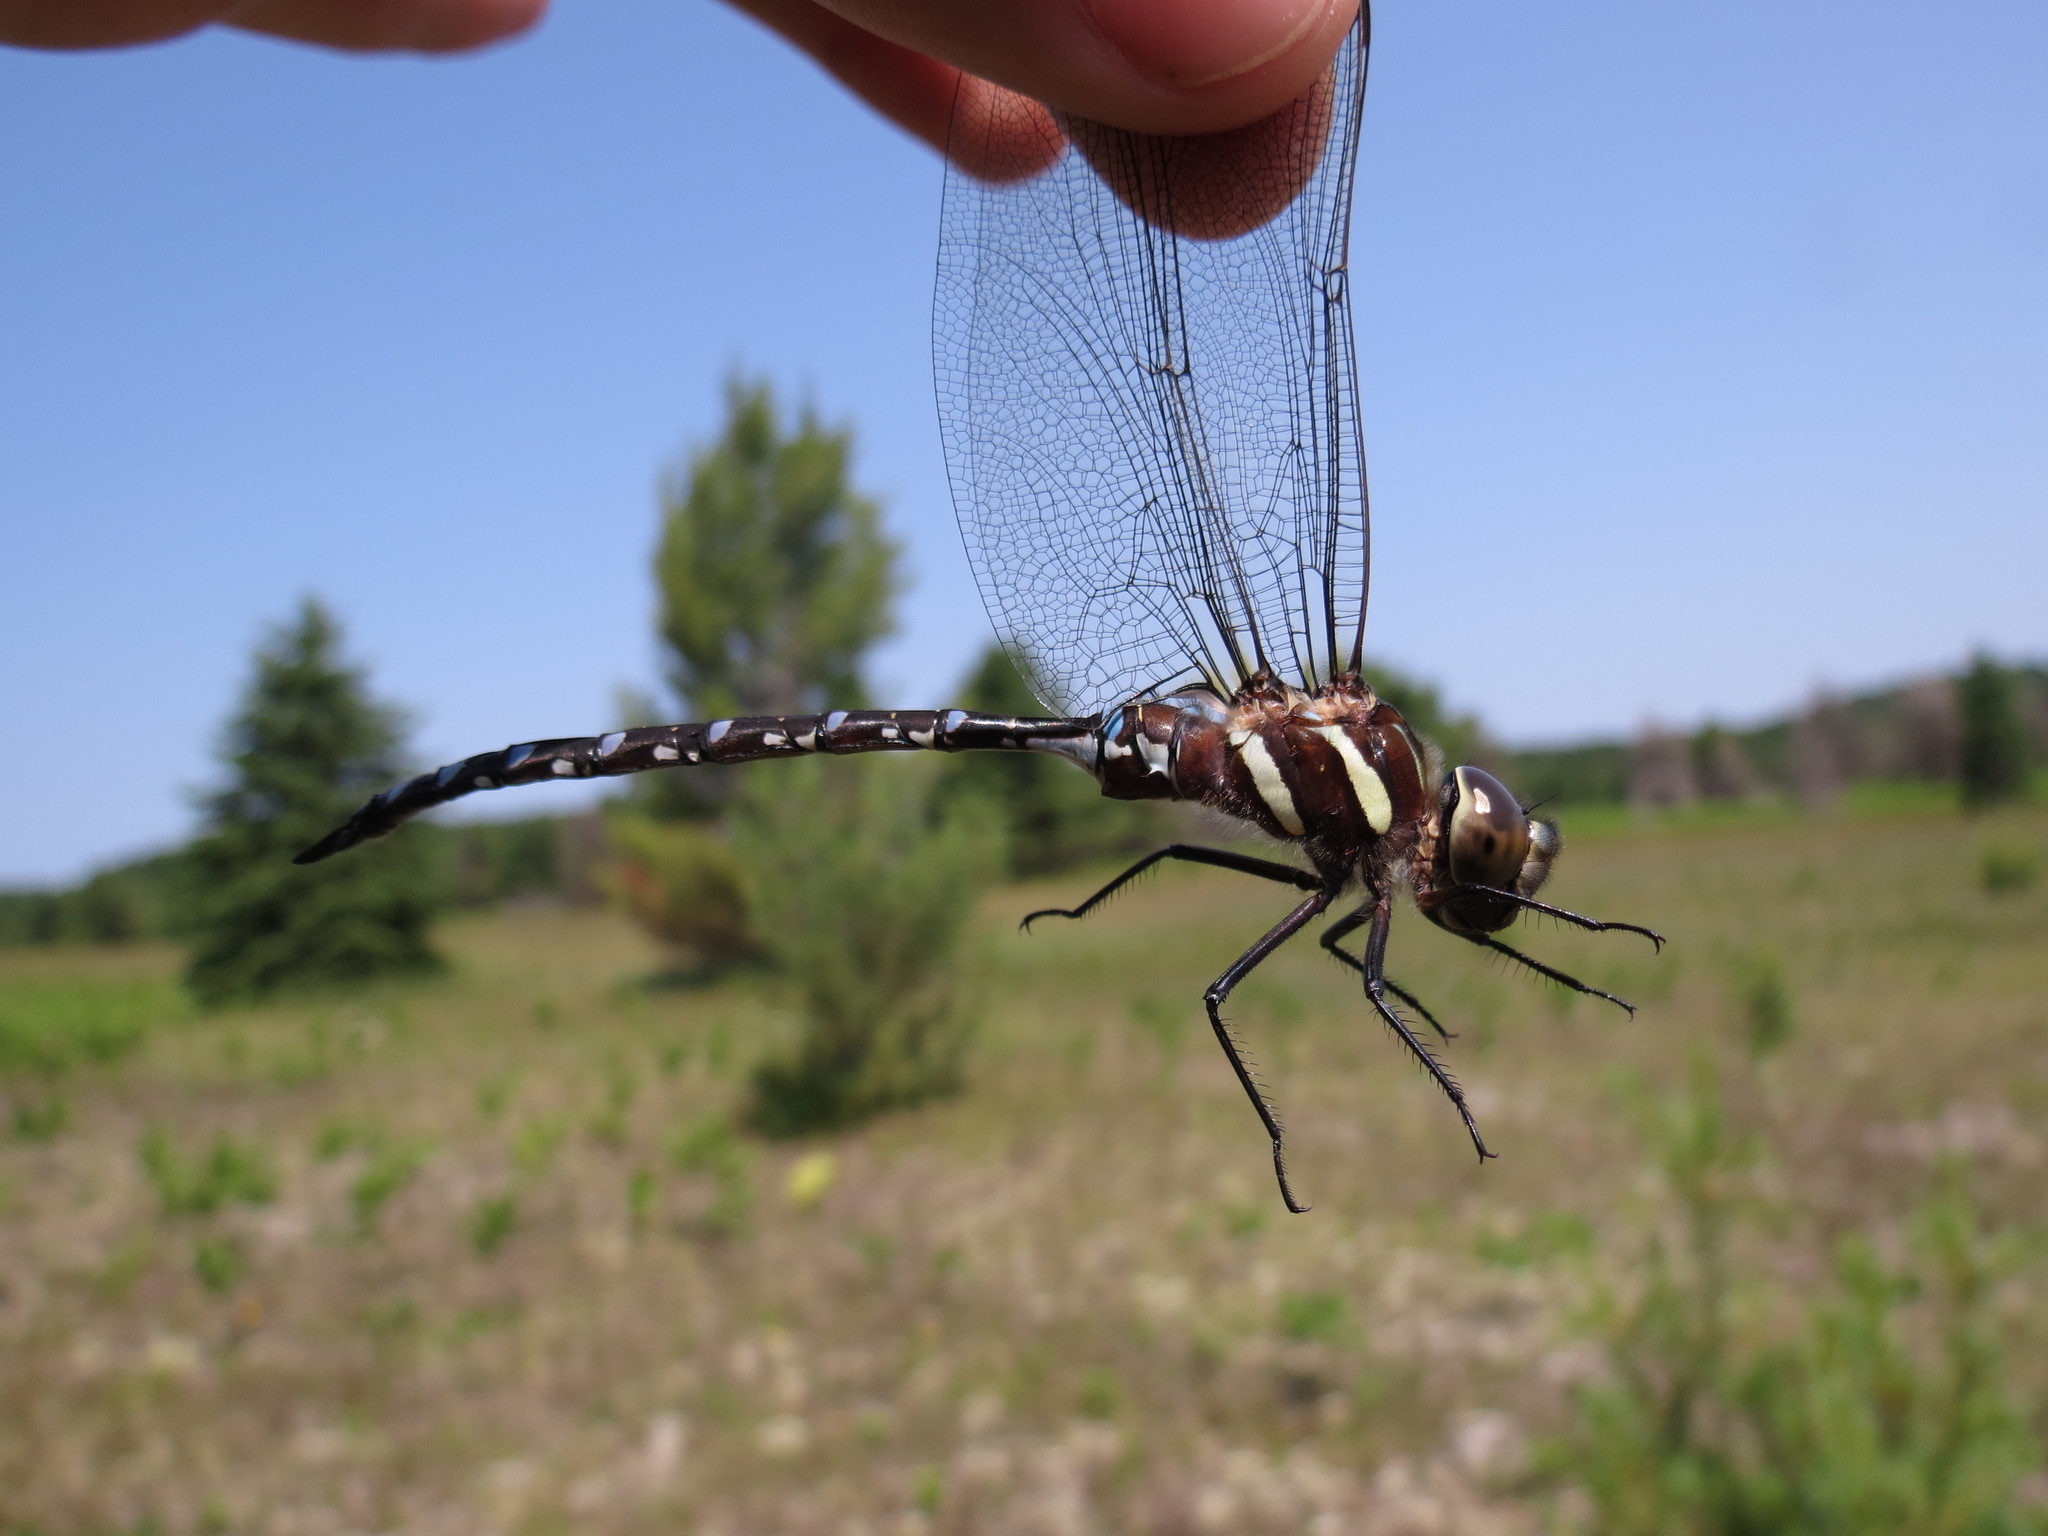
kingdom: Animalia
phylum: Arthropoda
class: Insecta
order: Odonata
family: Aeshnidae
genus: Aeshna
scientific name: Aeshna tuberculifera
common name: Aeschne à tubercules
